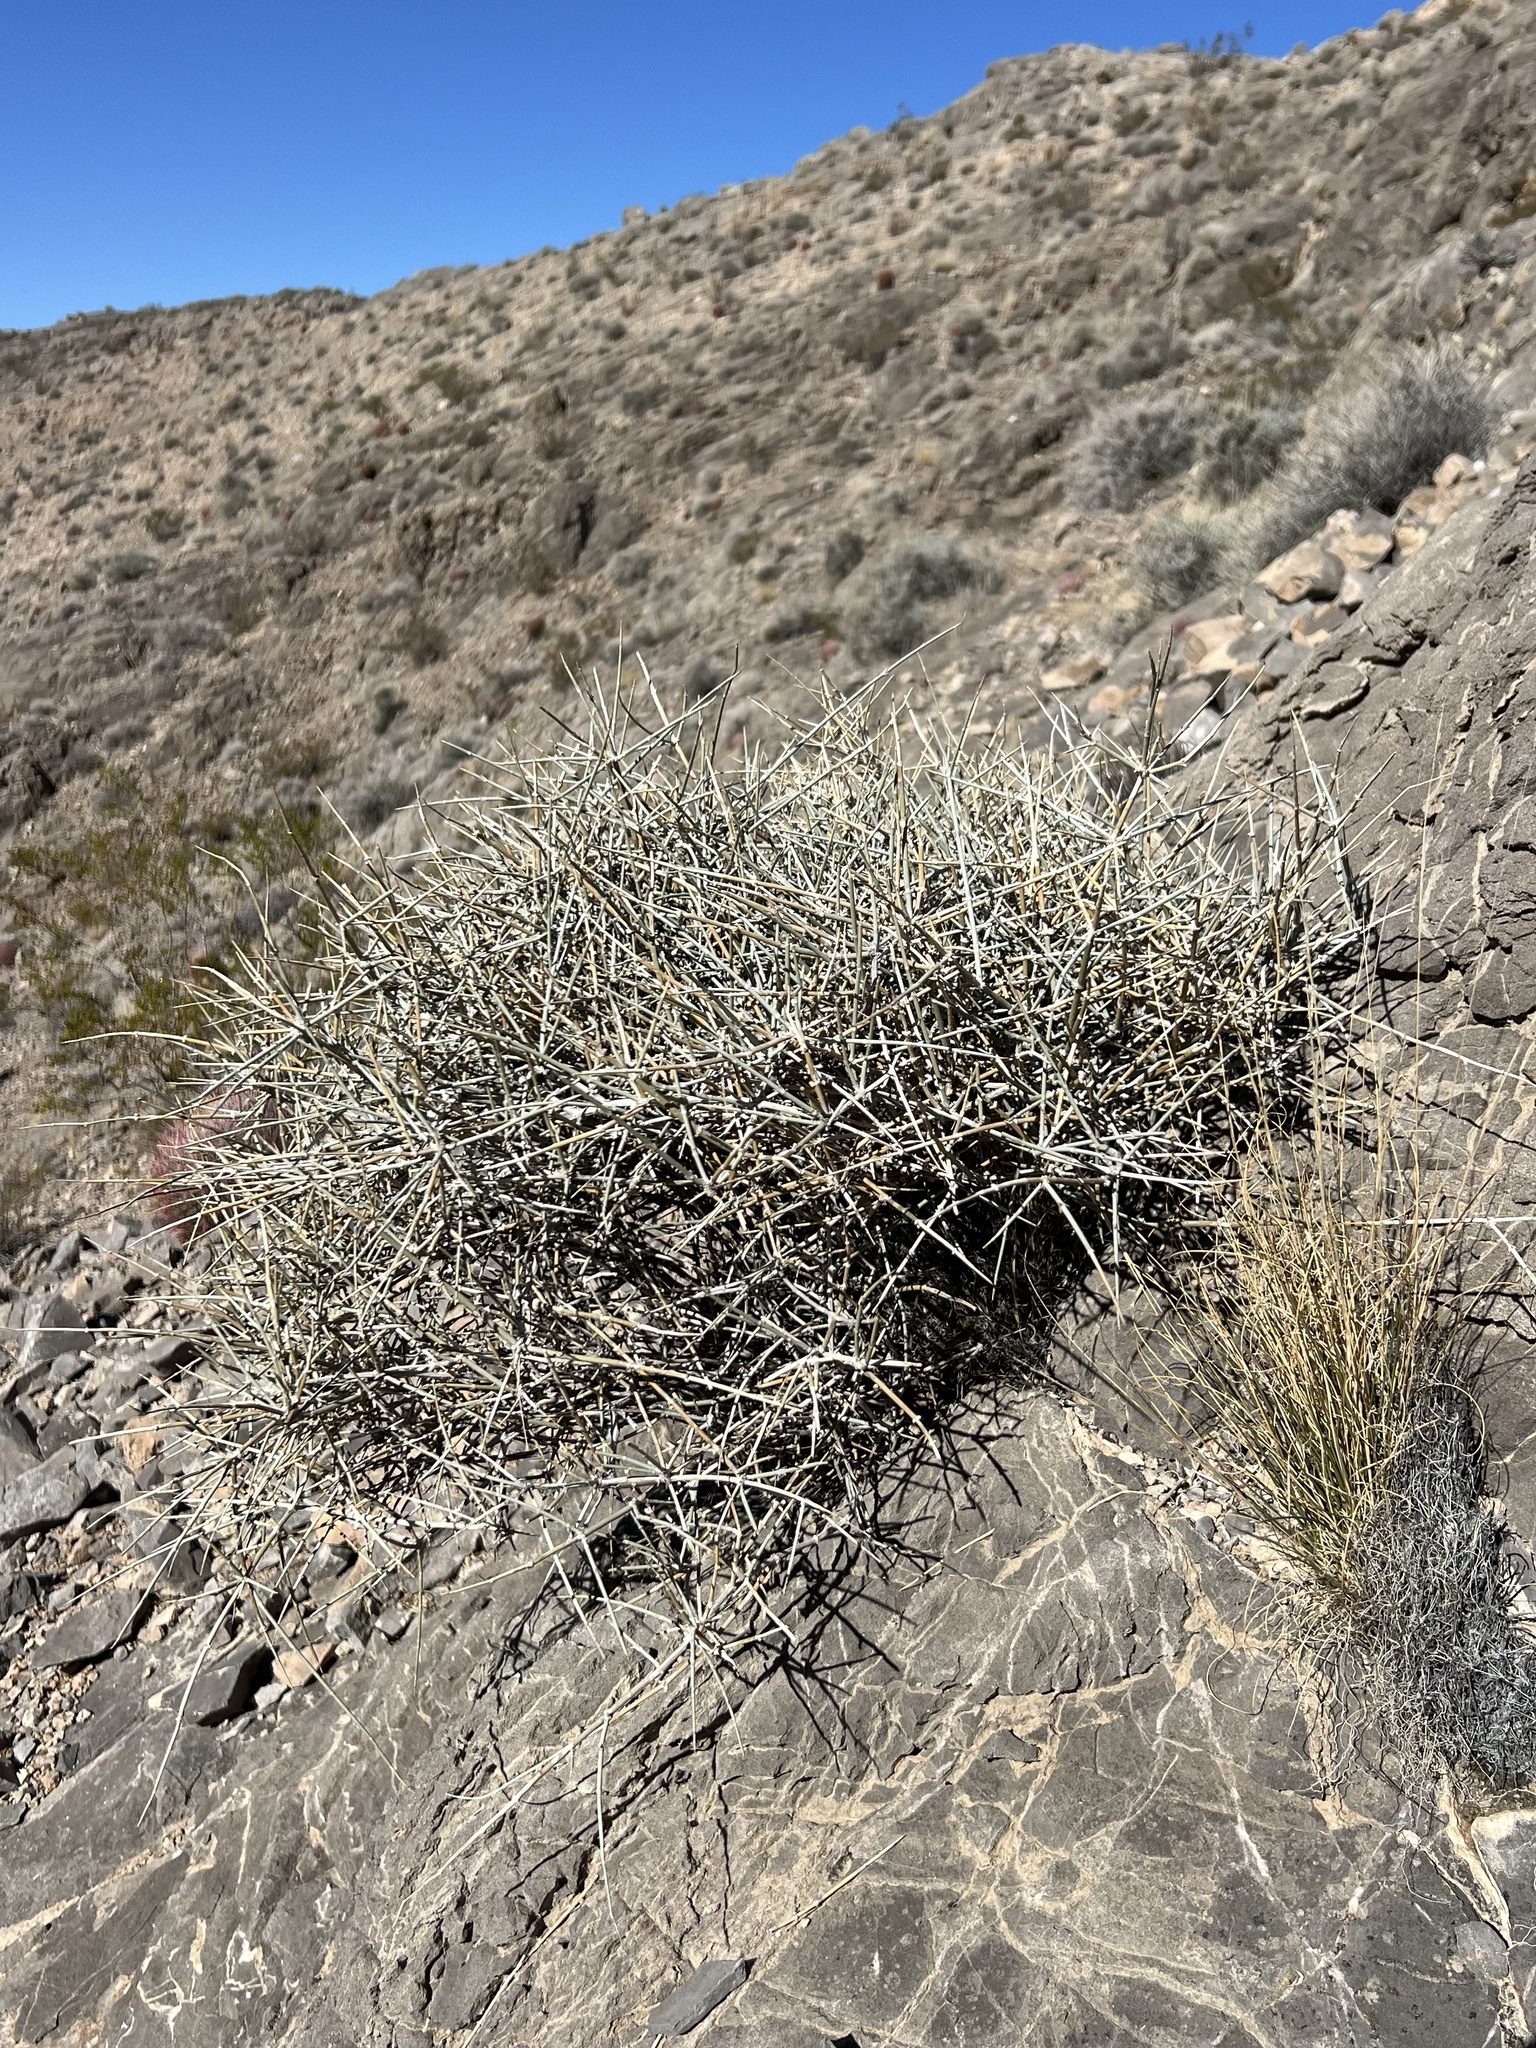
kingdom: Plantae
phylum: Tracheophyta
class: Gnetopsida
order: Ephedrales
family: Ephedraceae
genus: Ephedra
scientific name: Ephedra nevadensis
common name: Gray ephedra
